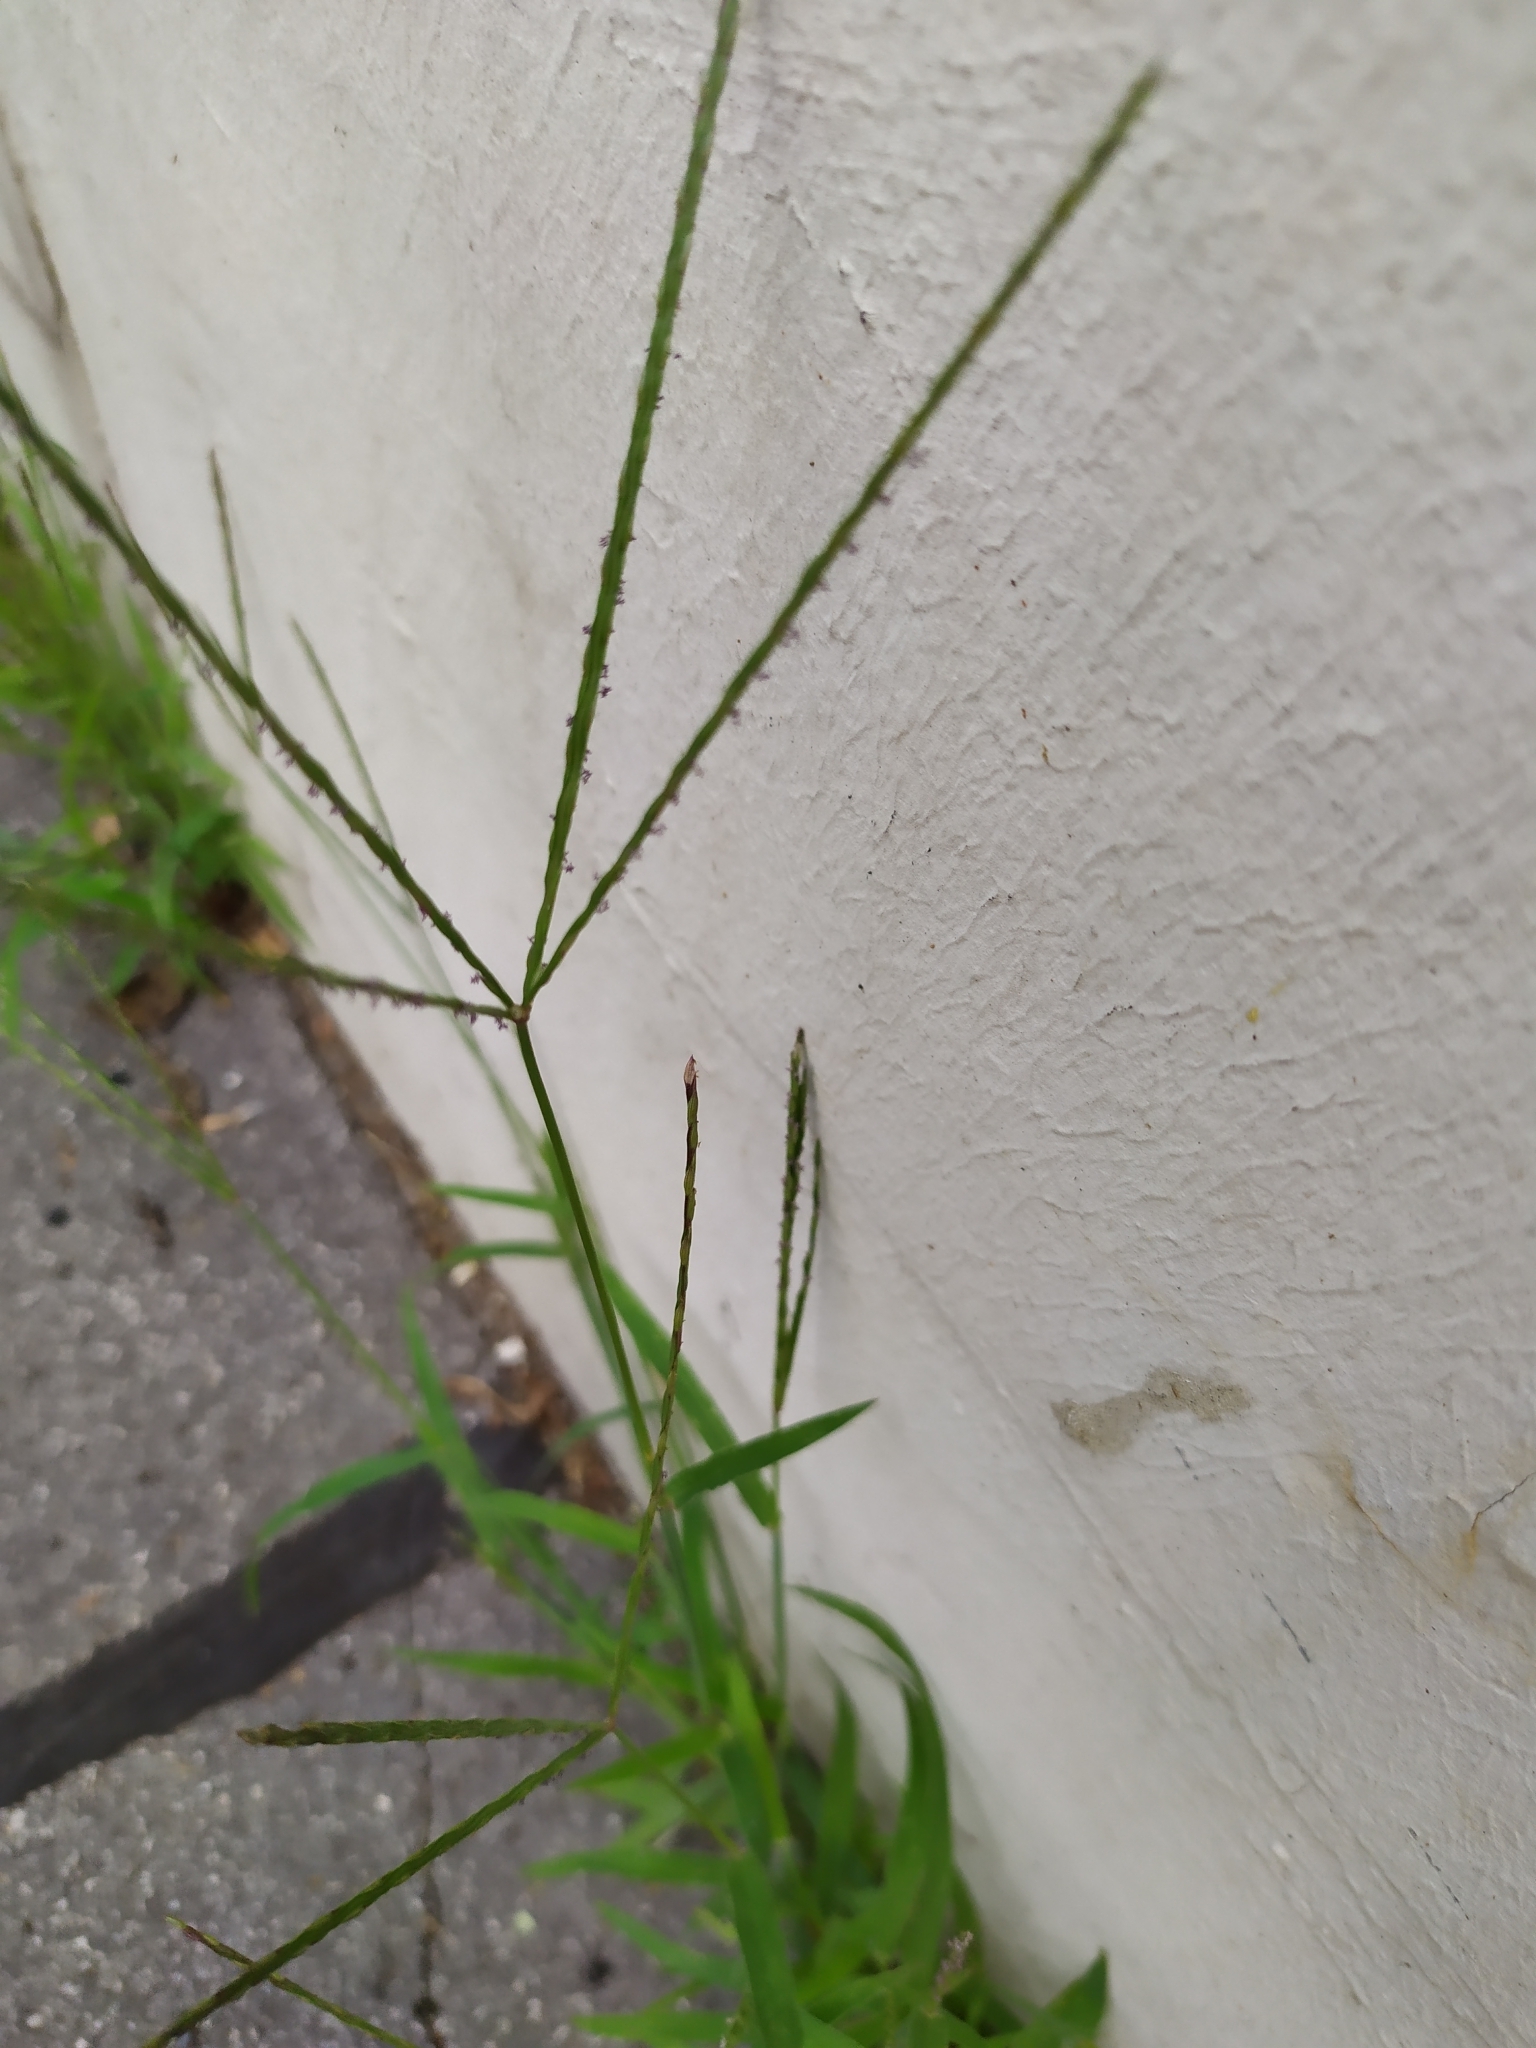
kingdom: Plantae
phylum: Tracheophyta
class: Liliopsida
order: Poales
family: Poaceae
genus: Digitaria
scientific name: Digitaria sanguinalis
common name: Hairy crabgrass
